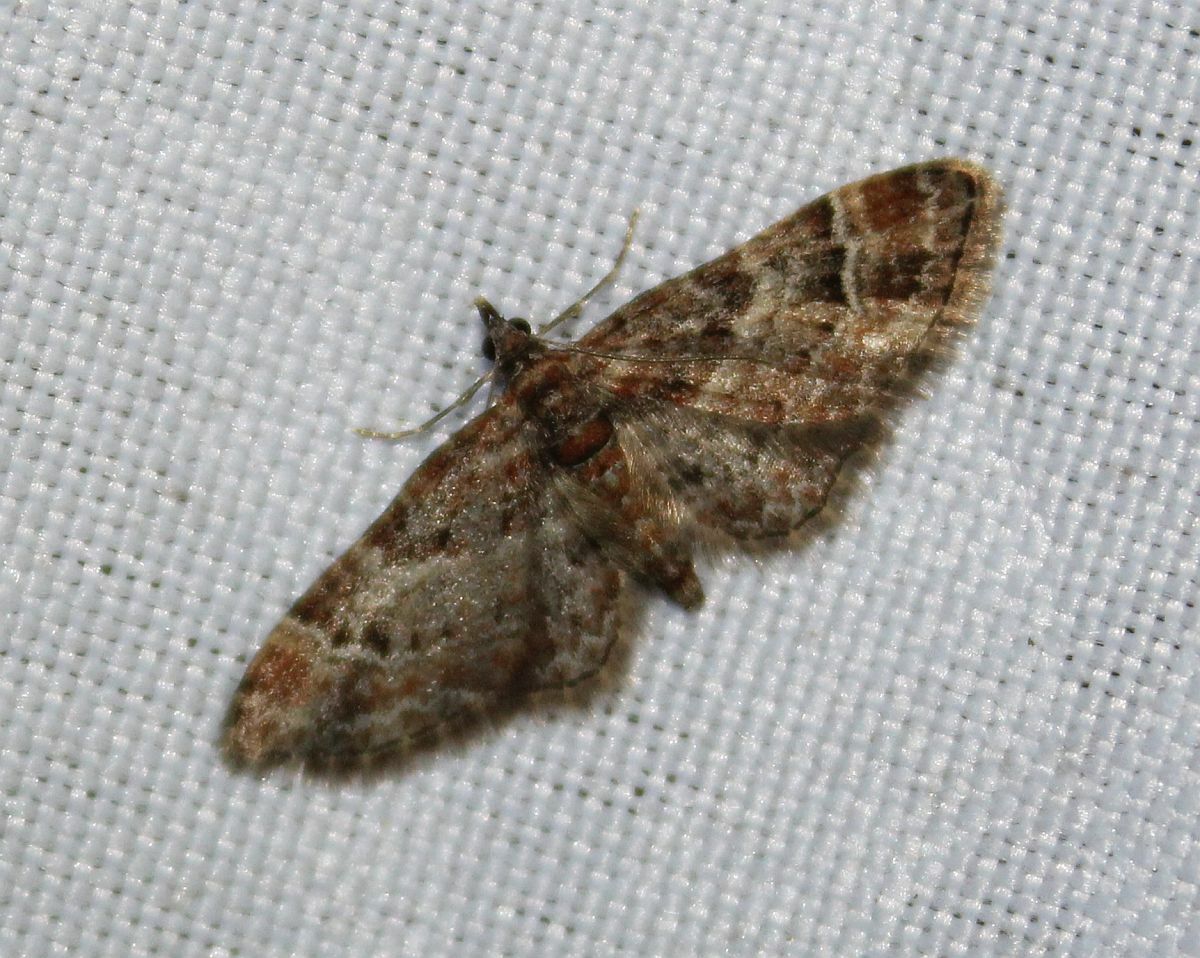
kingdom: Animalia
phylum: Arthropoda
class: Insecta
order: Lepidoptera
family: Geometridae
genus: Gymnoscelis
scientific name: Gymnoscelis rufifasciata
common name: Double-striped pug
